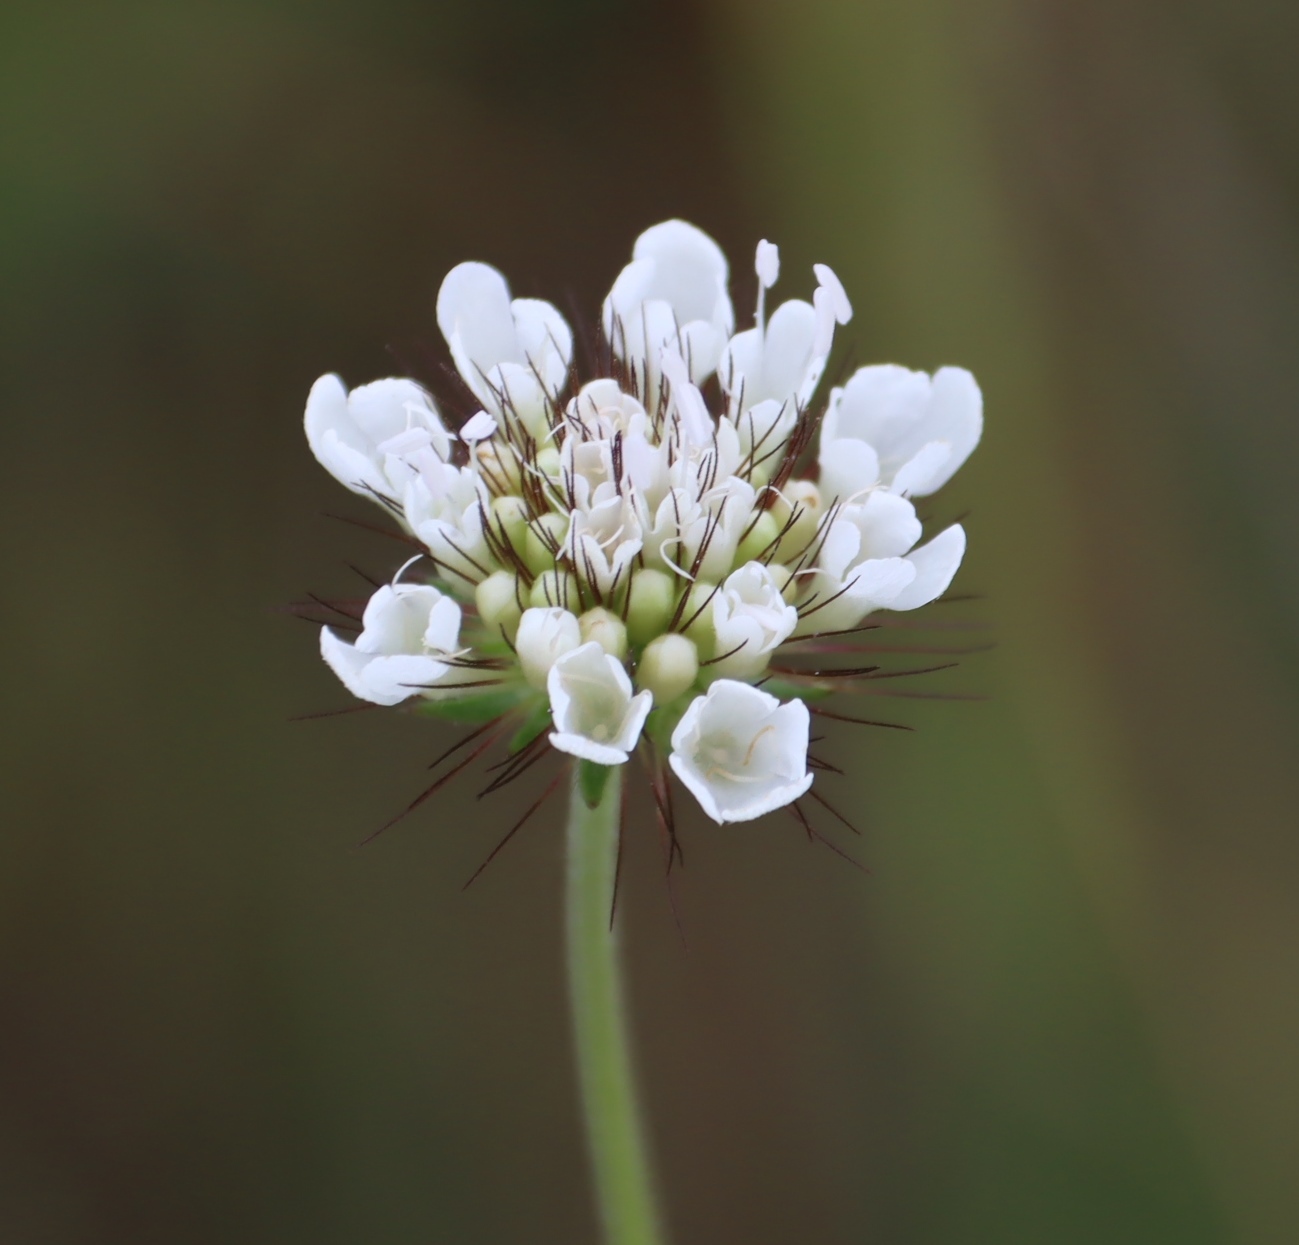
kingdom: Plantae
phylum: Tracheophyta
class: Magnoliopsida
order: Dipsacales
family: Caprifoliaceae
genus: Scabiosa
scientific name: Scabiosa columbaria
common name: Small scabious
